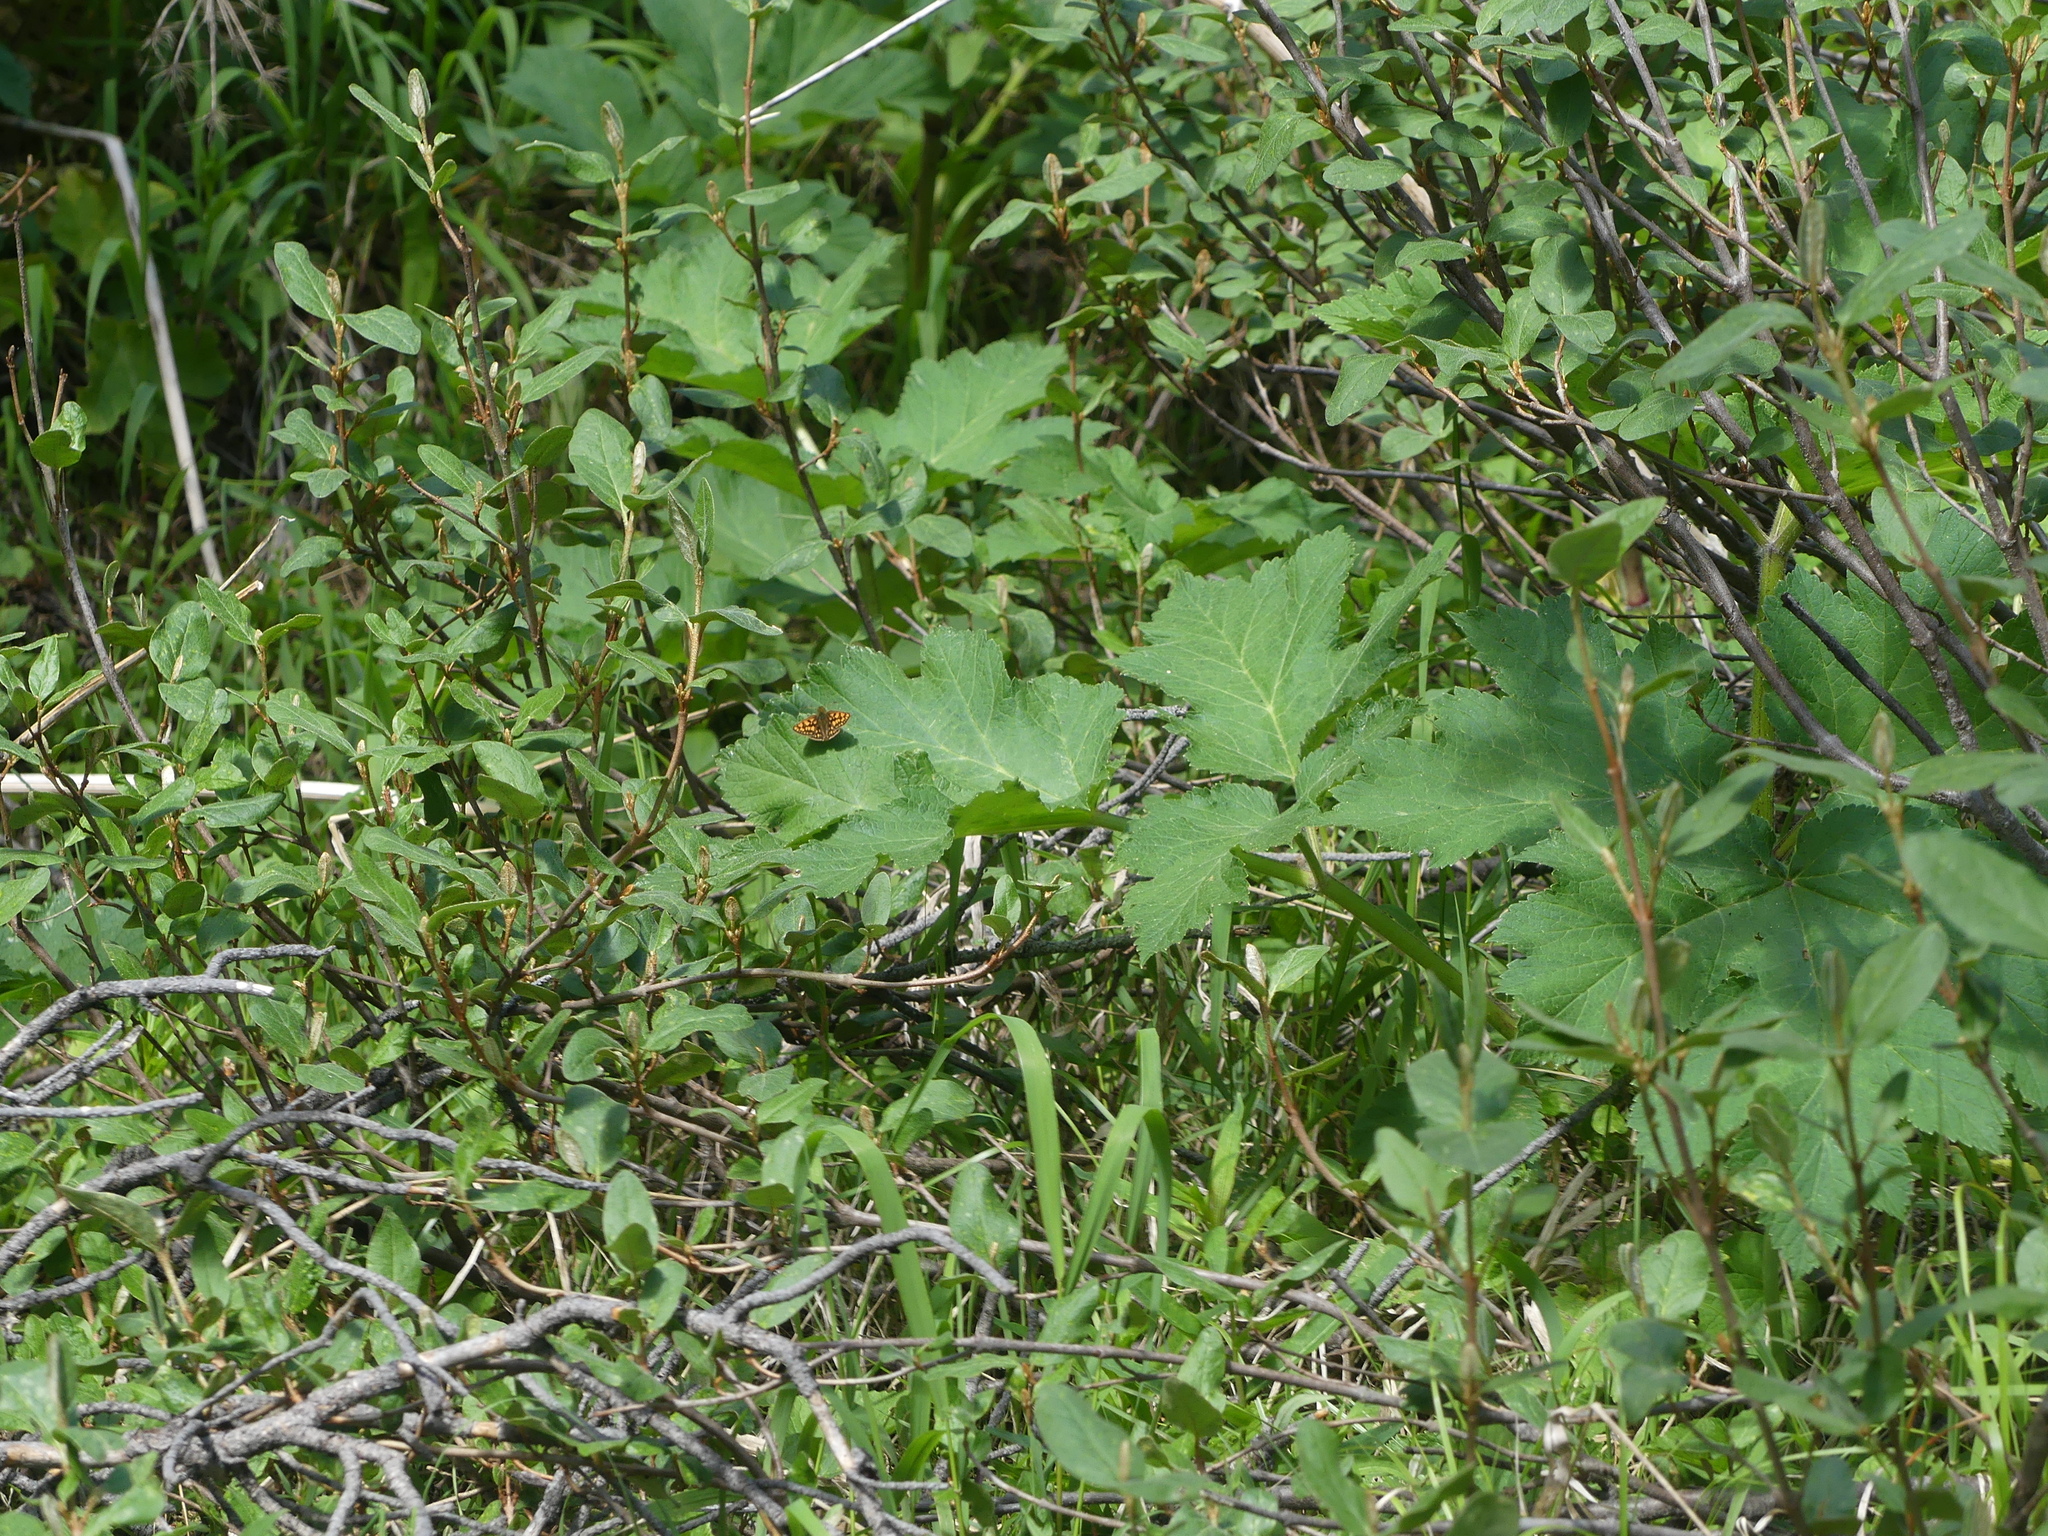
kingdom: Plantae
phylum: Tracheophyta
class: Magnoliopsida
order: Apiales
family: Apiaceae
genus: Heracleum
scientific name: Heracleum maximum
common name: American cow parsnip
